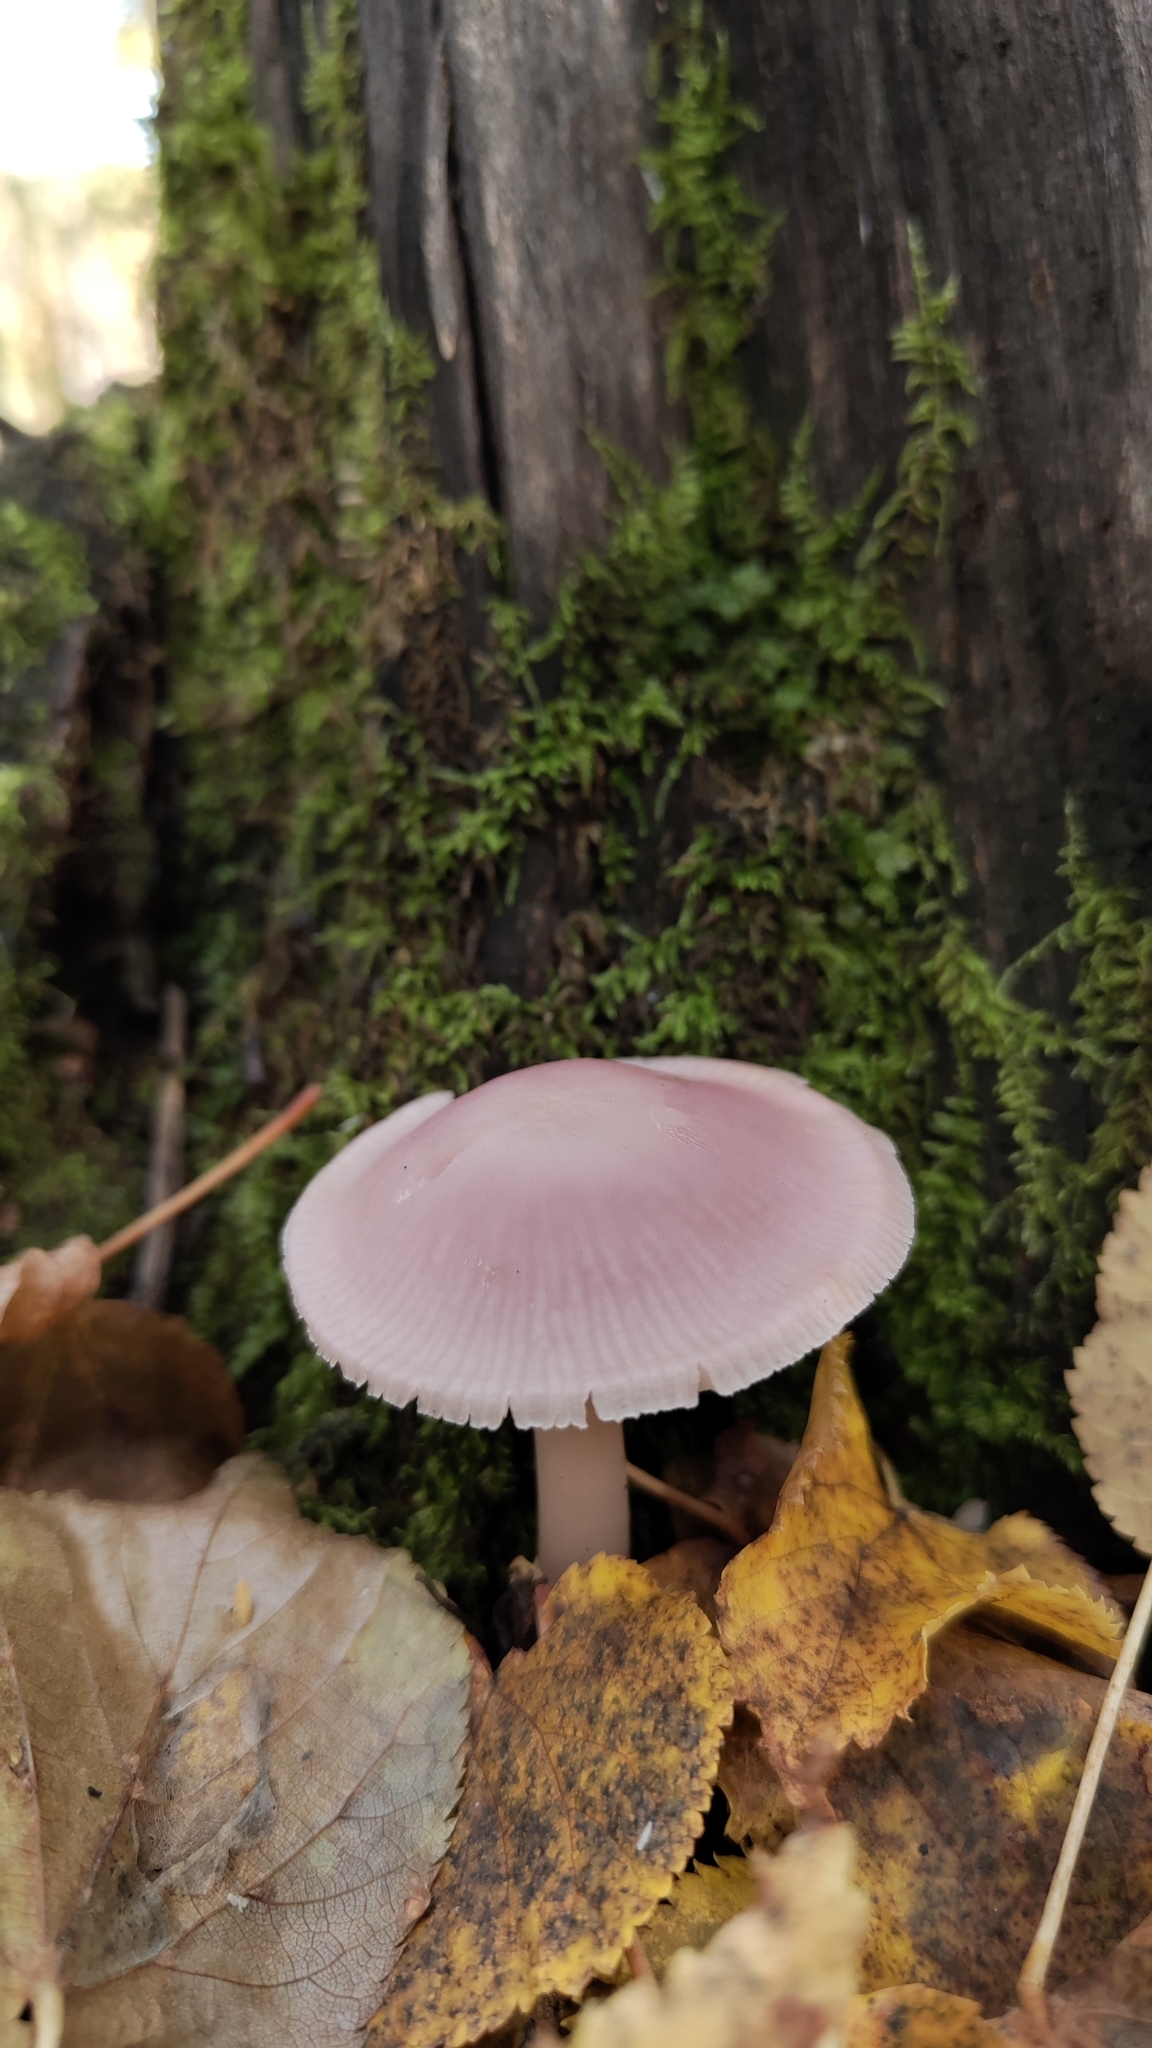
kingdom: Fungi
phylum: Basidiomycota
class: Agaricomycetes
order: Agaricales
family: Mycenaceae
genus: Mycena
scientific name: Mycena pura
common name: Lilac bonnet
